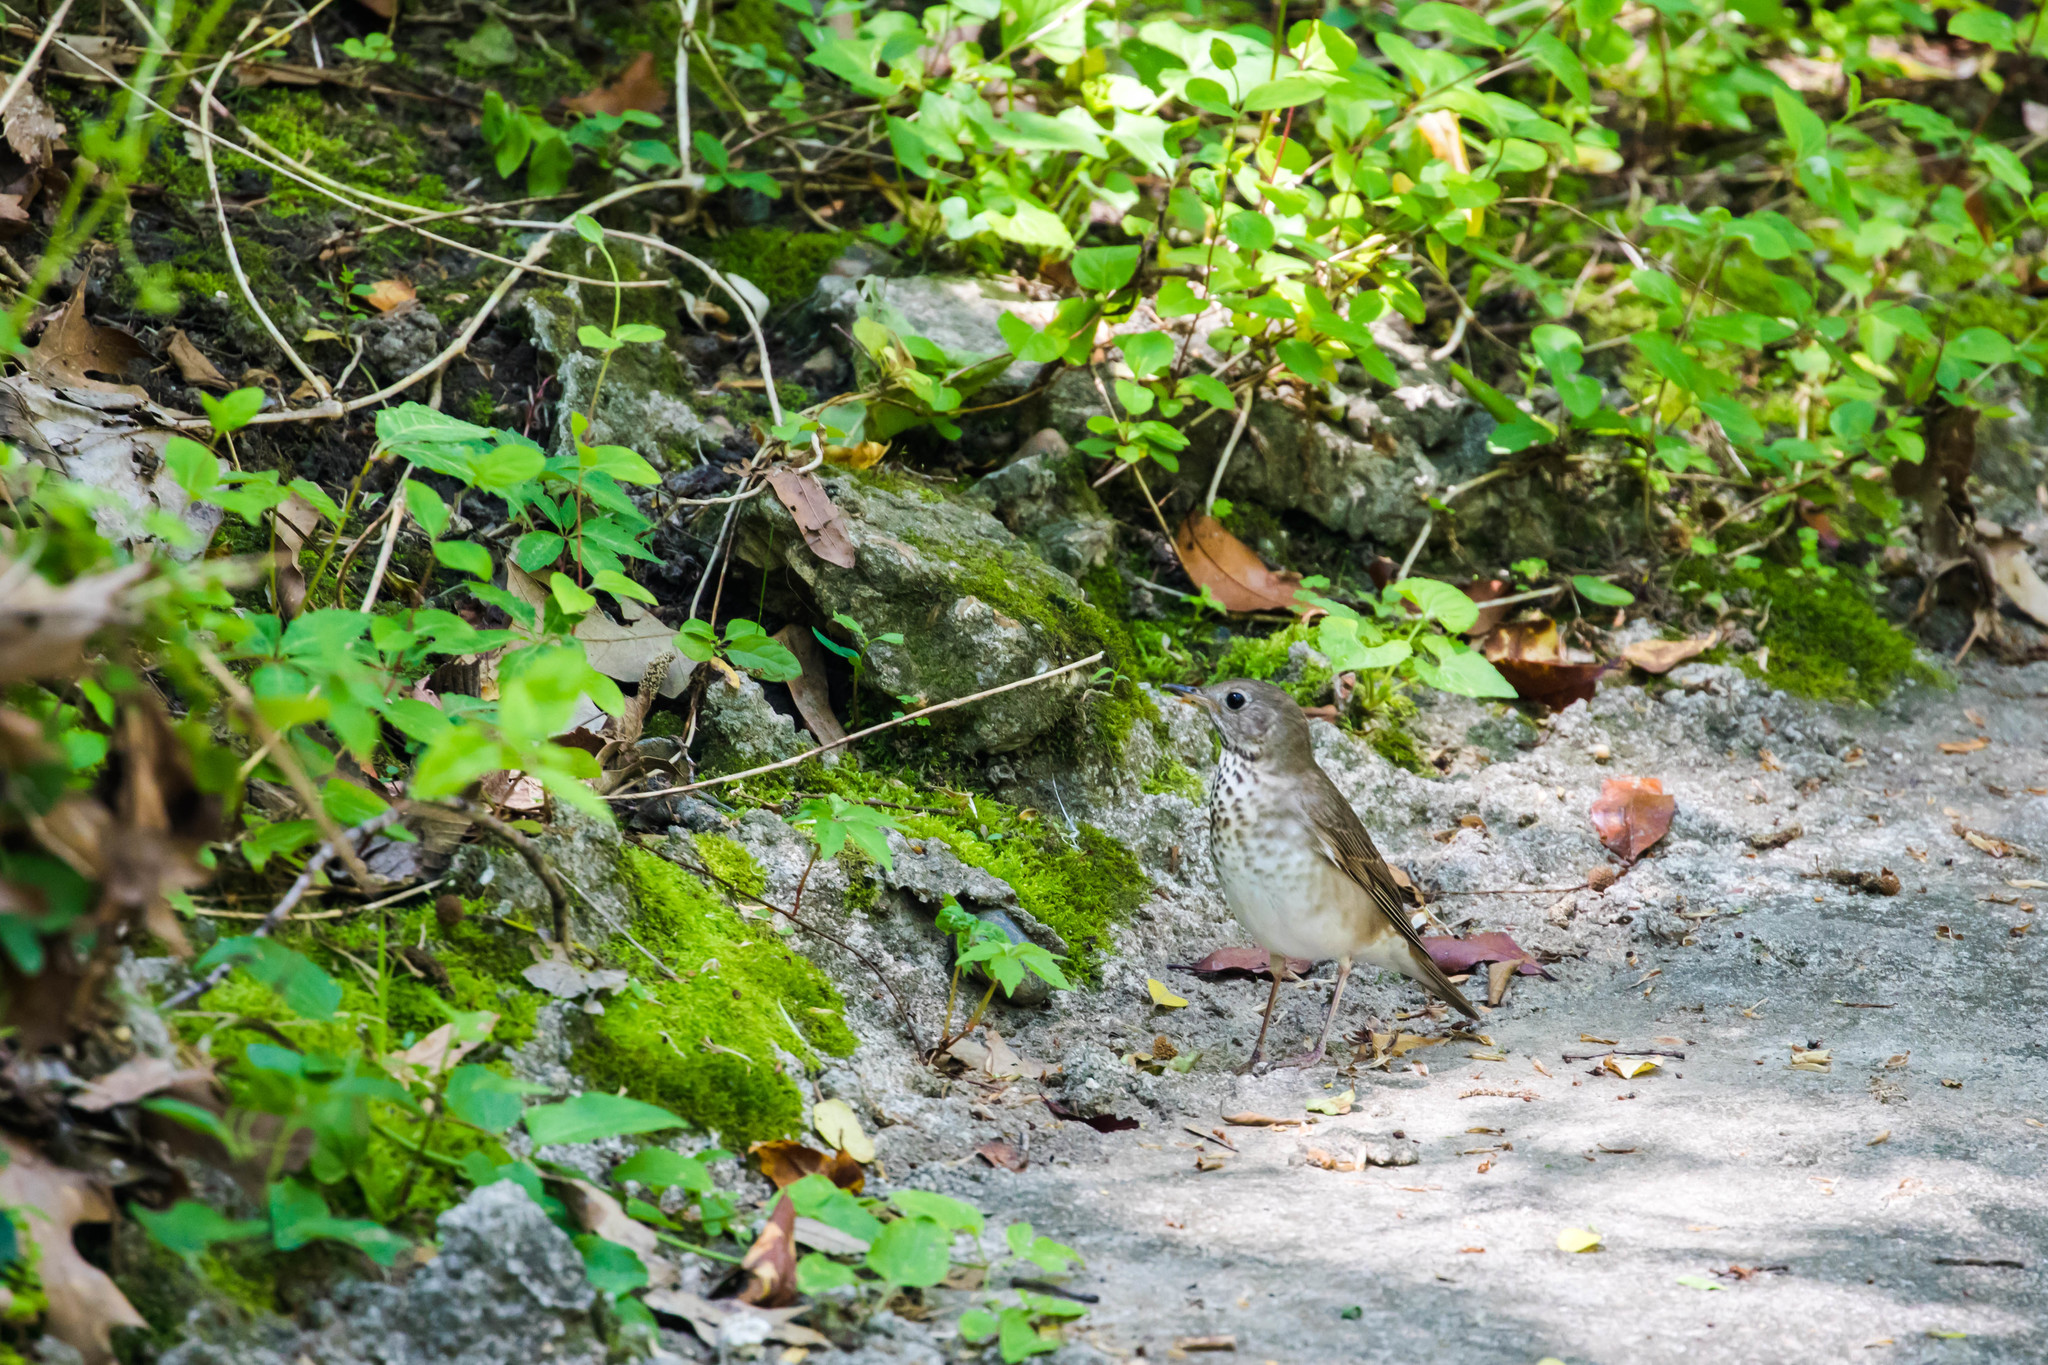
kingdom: Animalia
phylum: Chordata
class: Aves
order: Passeriformes
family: Turdidae
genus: Catharus
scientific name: Catharus minimus
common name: Grey-cheeked thrush
